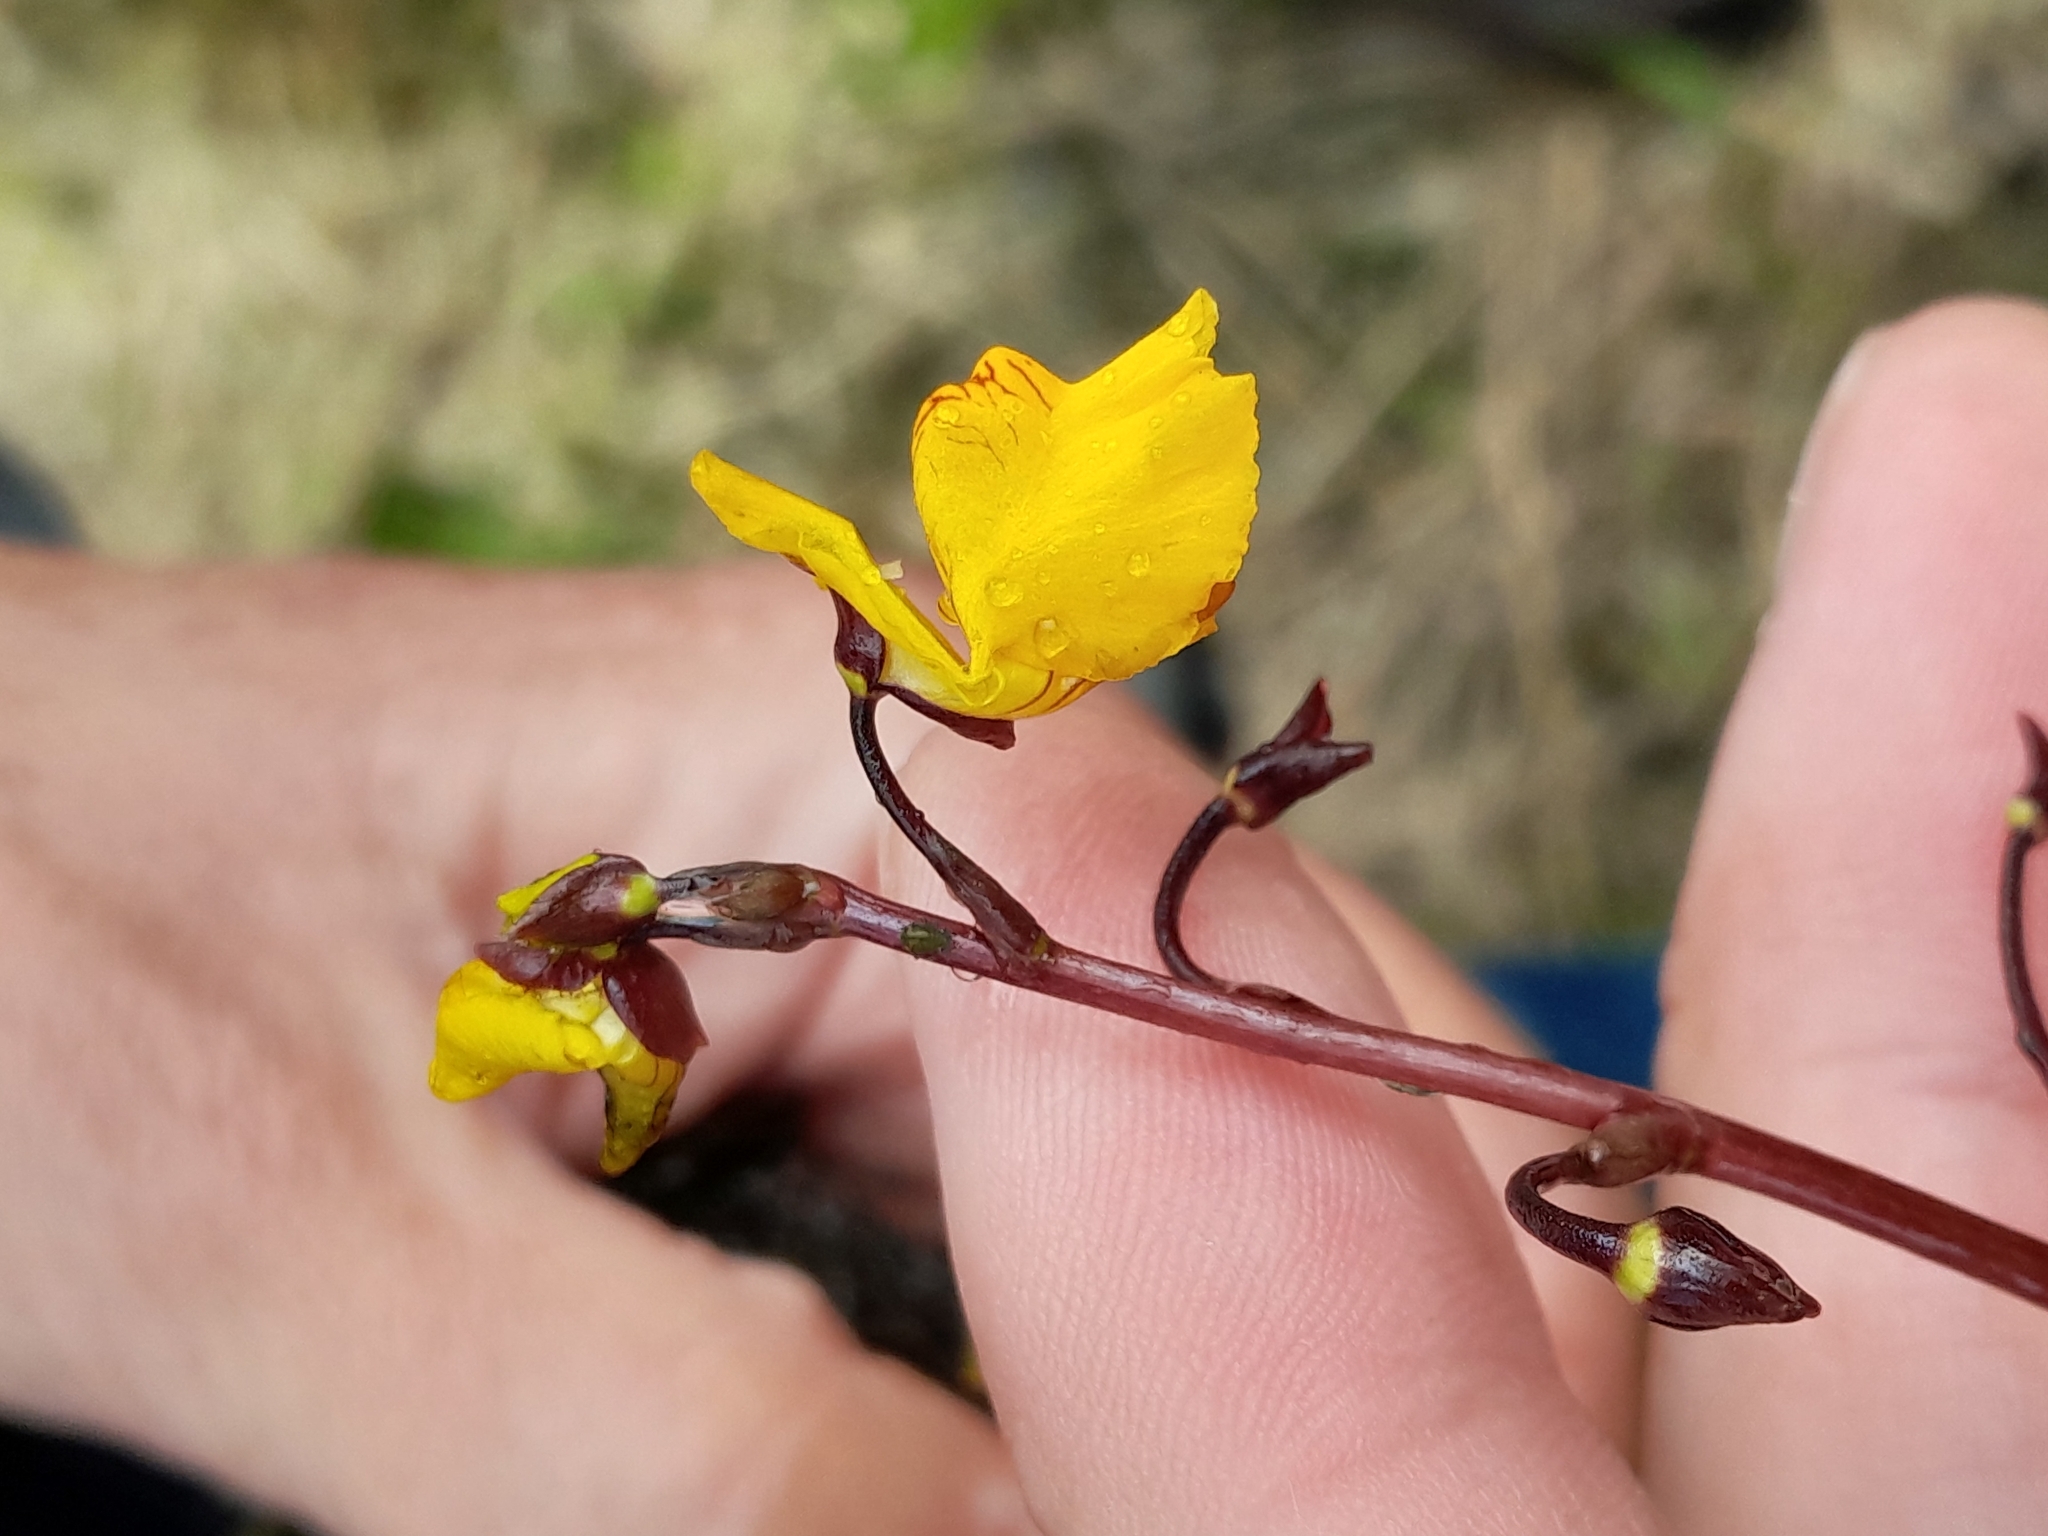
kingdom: Plantae
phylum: Tracheophyta
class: Magnoliopsida
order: Lamiales
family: Lentibulariaceae
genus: Utricularia
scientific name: Utricularia vulgaris
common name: Greater bladderwort
